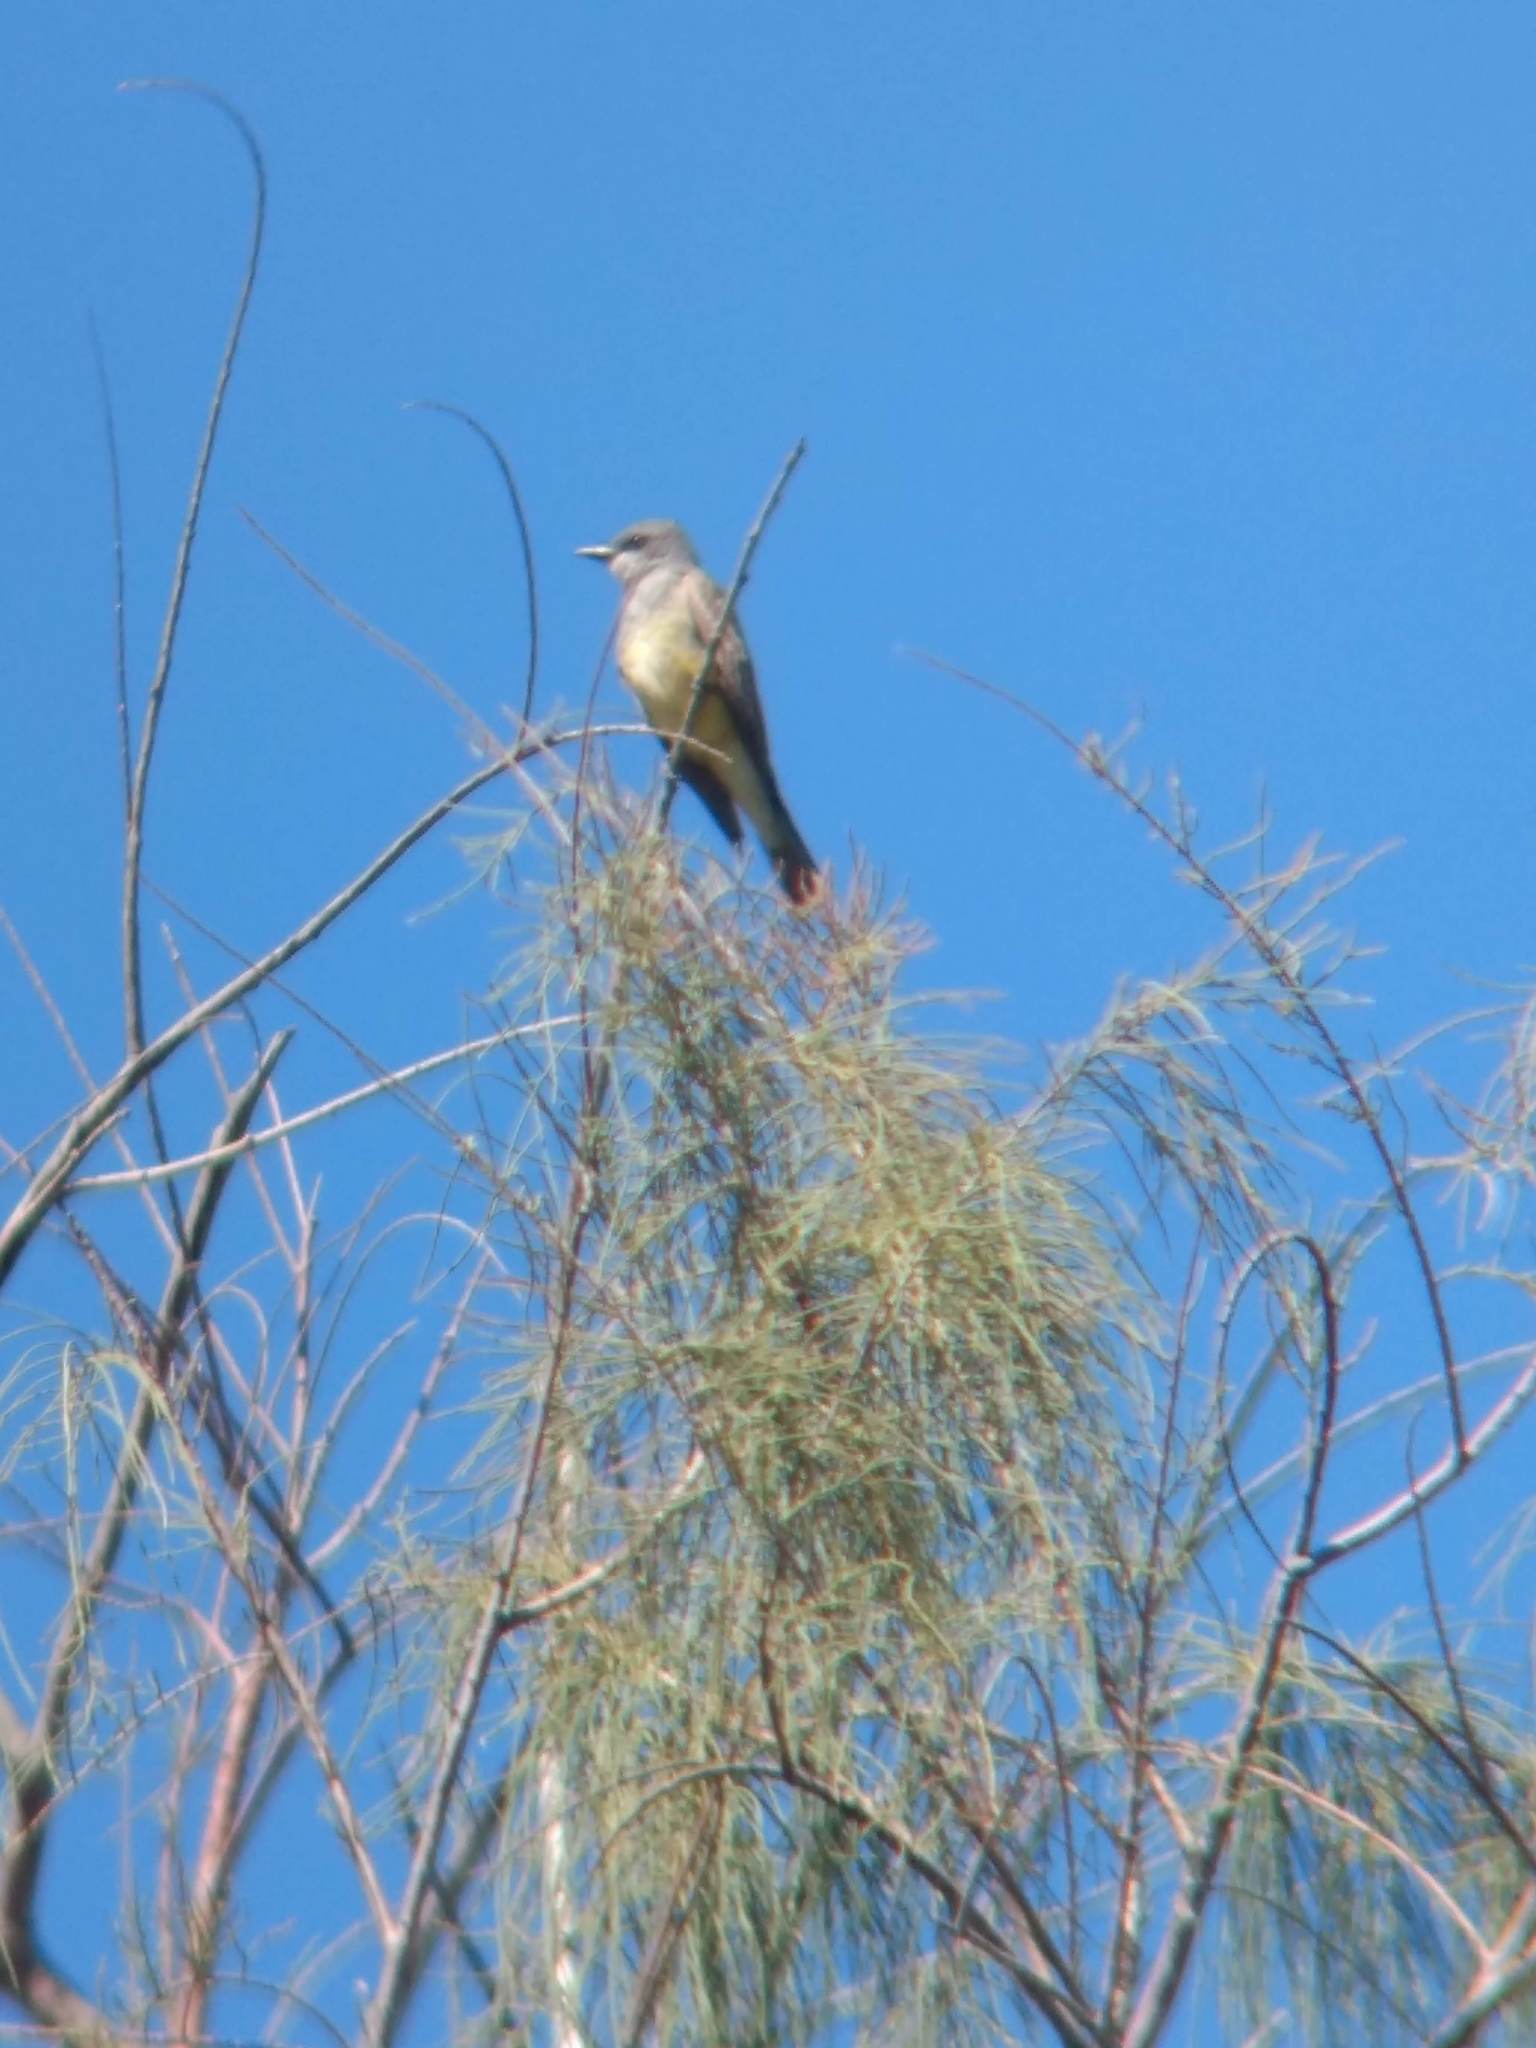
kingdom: Animalia
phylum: Chordata
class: Aves
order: Passeriformes
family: Tyrannidae
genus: Tyrannus
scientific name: Tyrannus vociferans
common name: Cassin's kingbird
